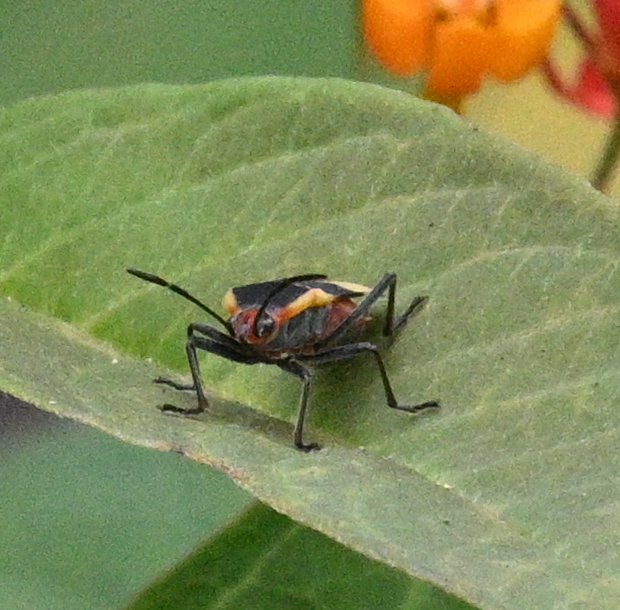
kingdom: Animalia
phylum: Arthropoda
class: Insecta
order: Hemiptera
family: Lygaeidae
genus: Oncopeltus
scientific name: Oncopeltus sandarachatus
